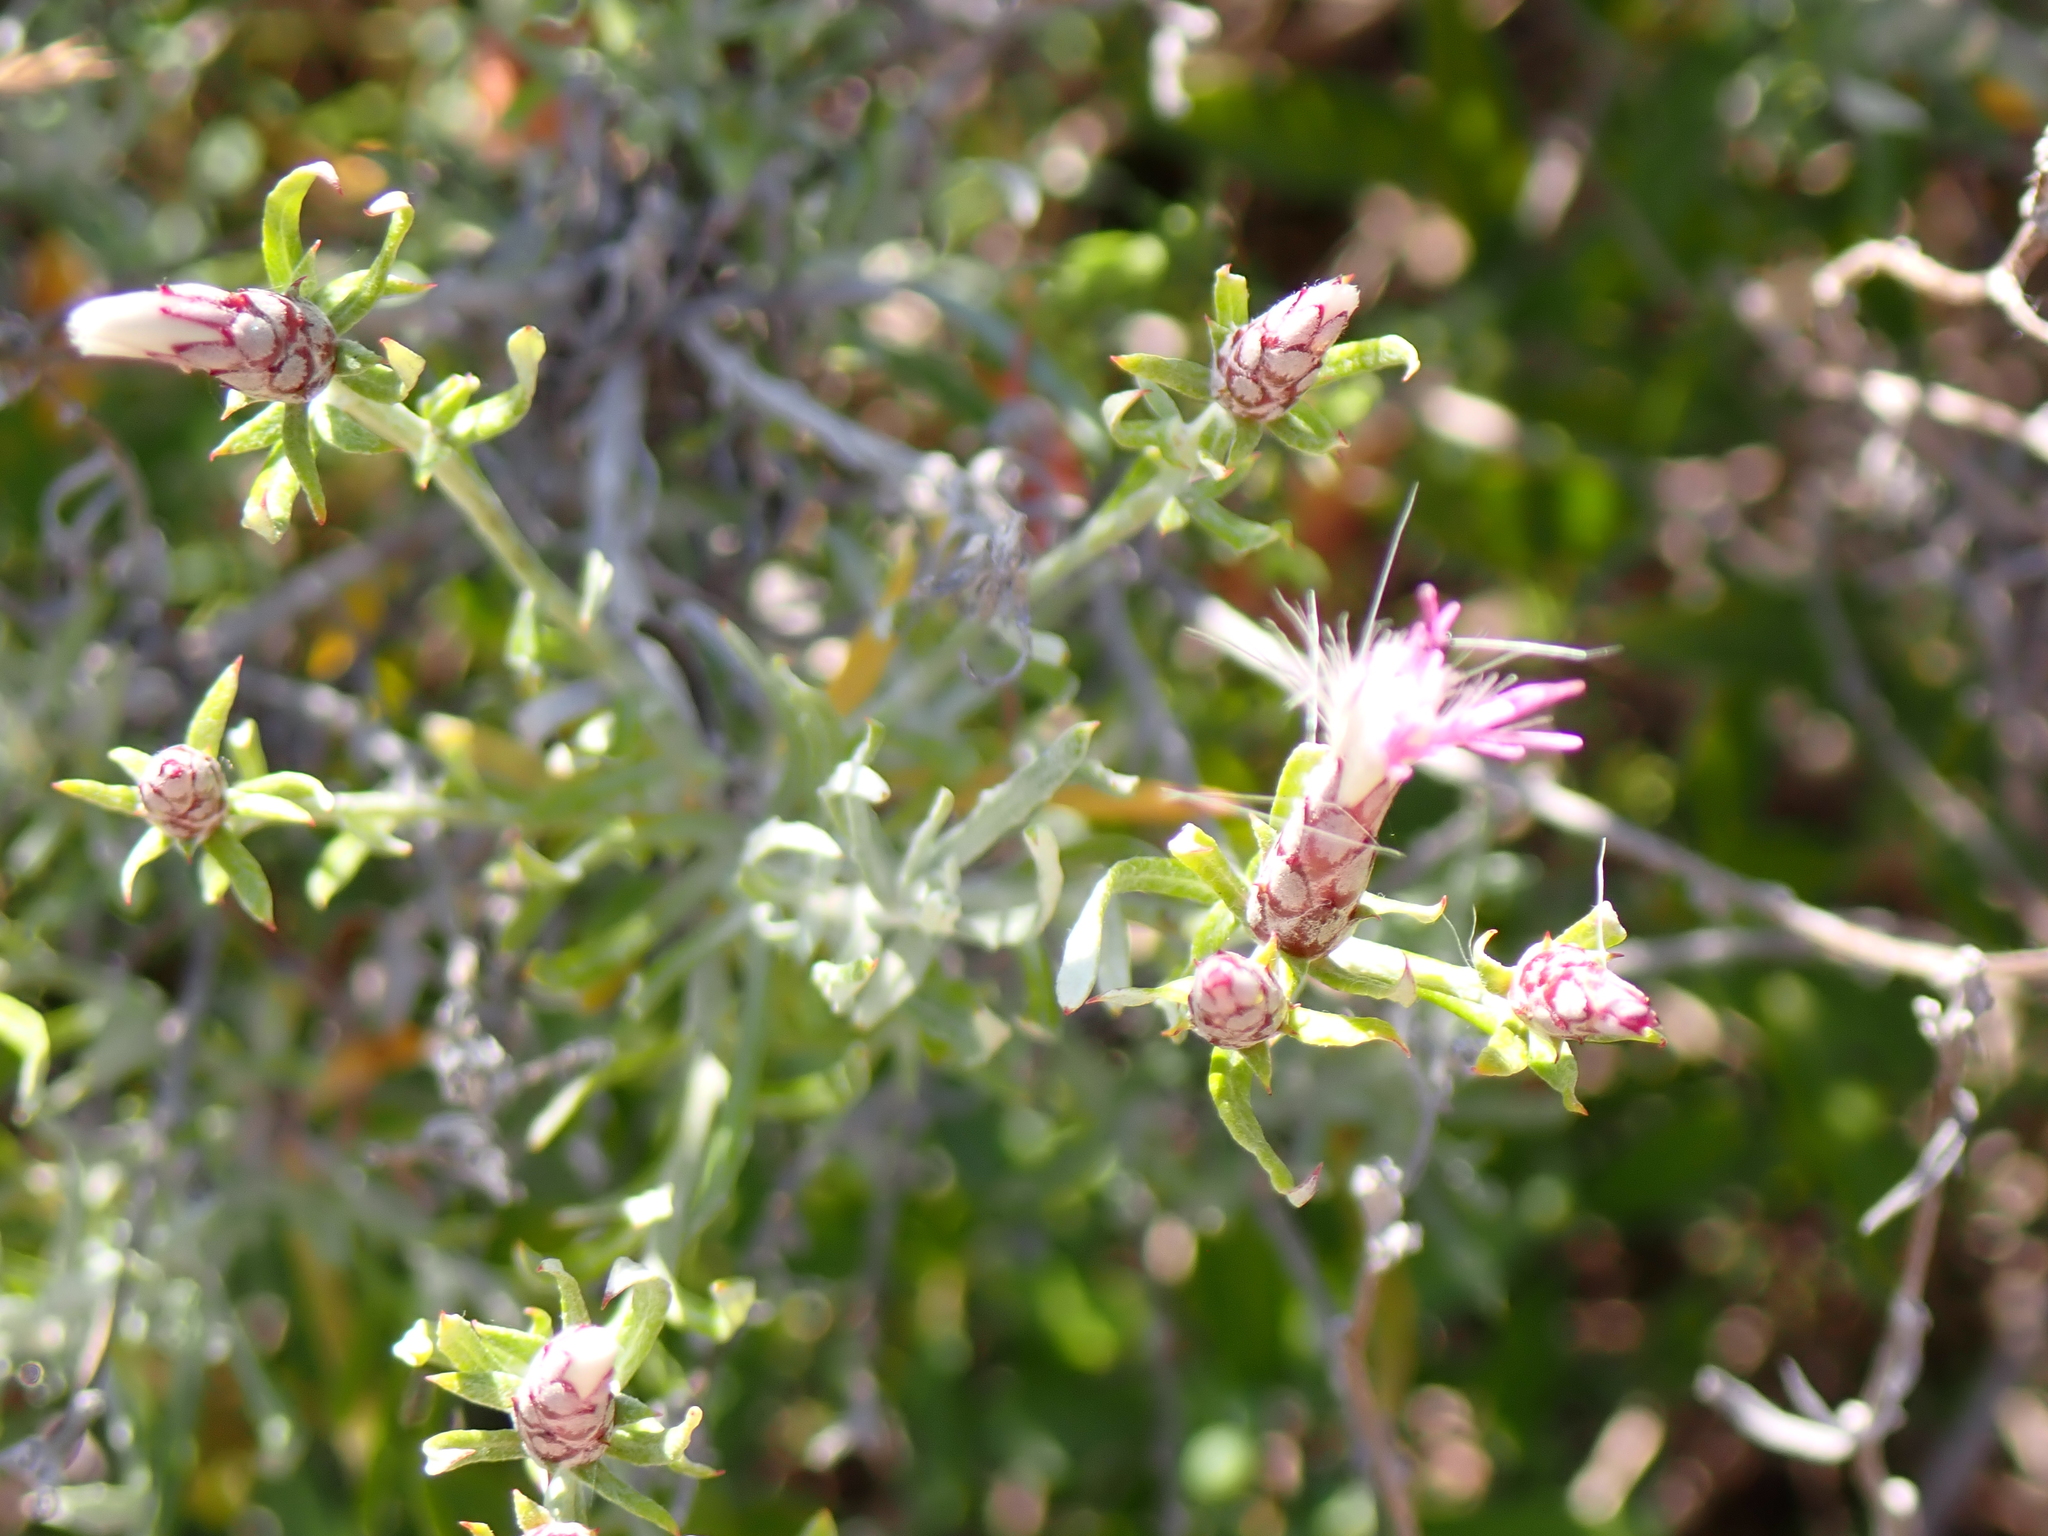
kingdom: Plantae
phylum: Tracheophyta
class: Magnoliopsida
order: Asterales
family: Asteraceae
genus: Staehelina
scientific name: Staehelina dubia
